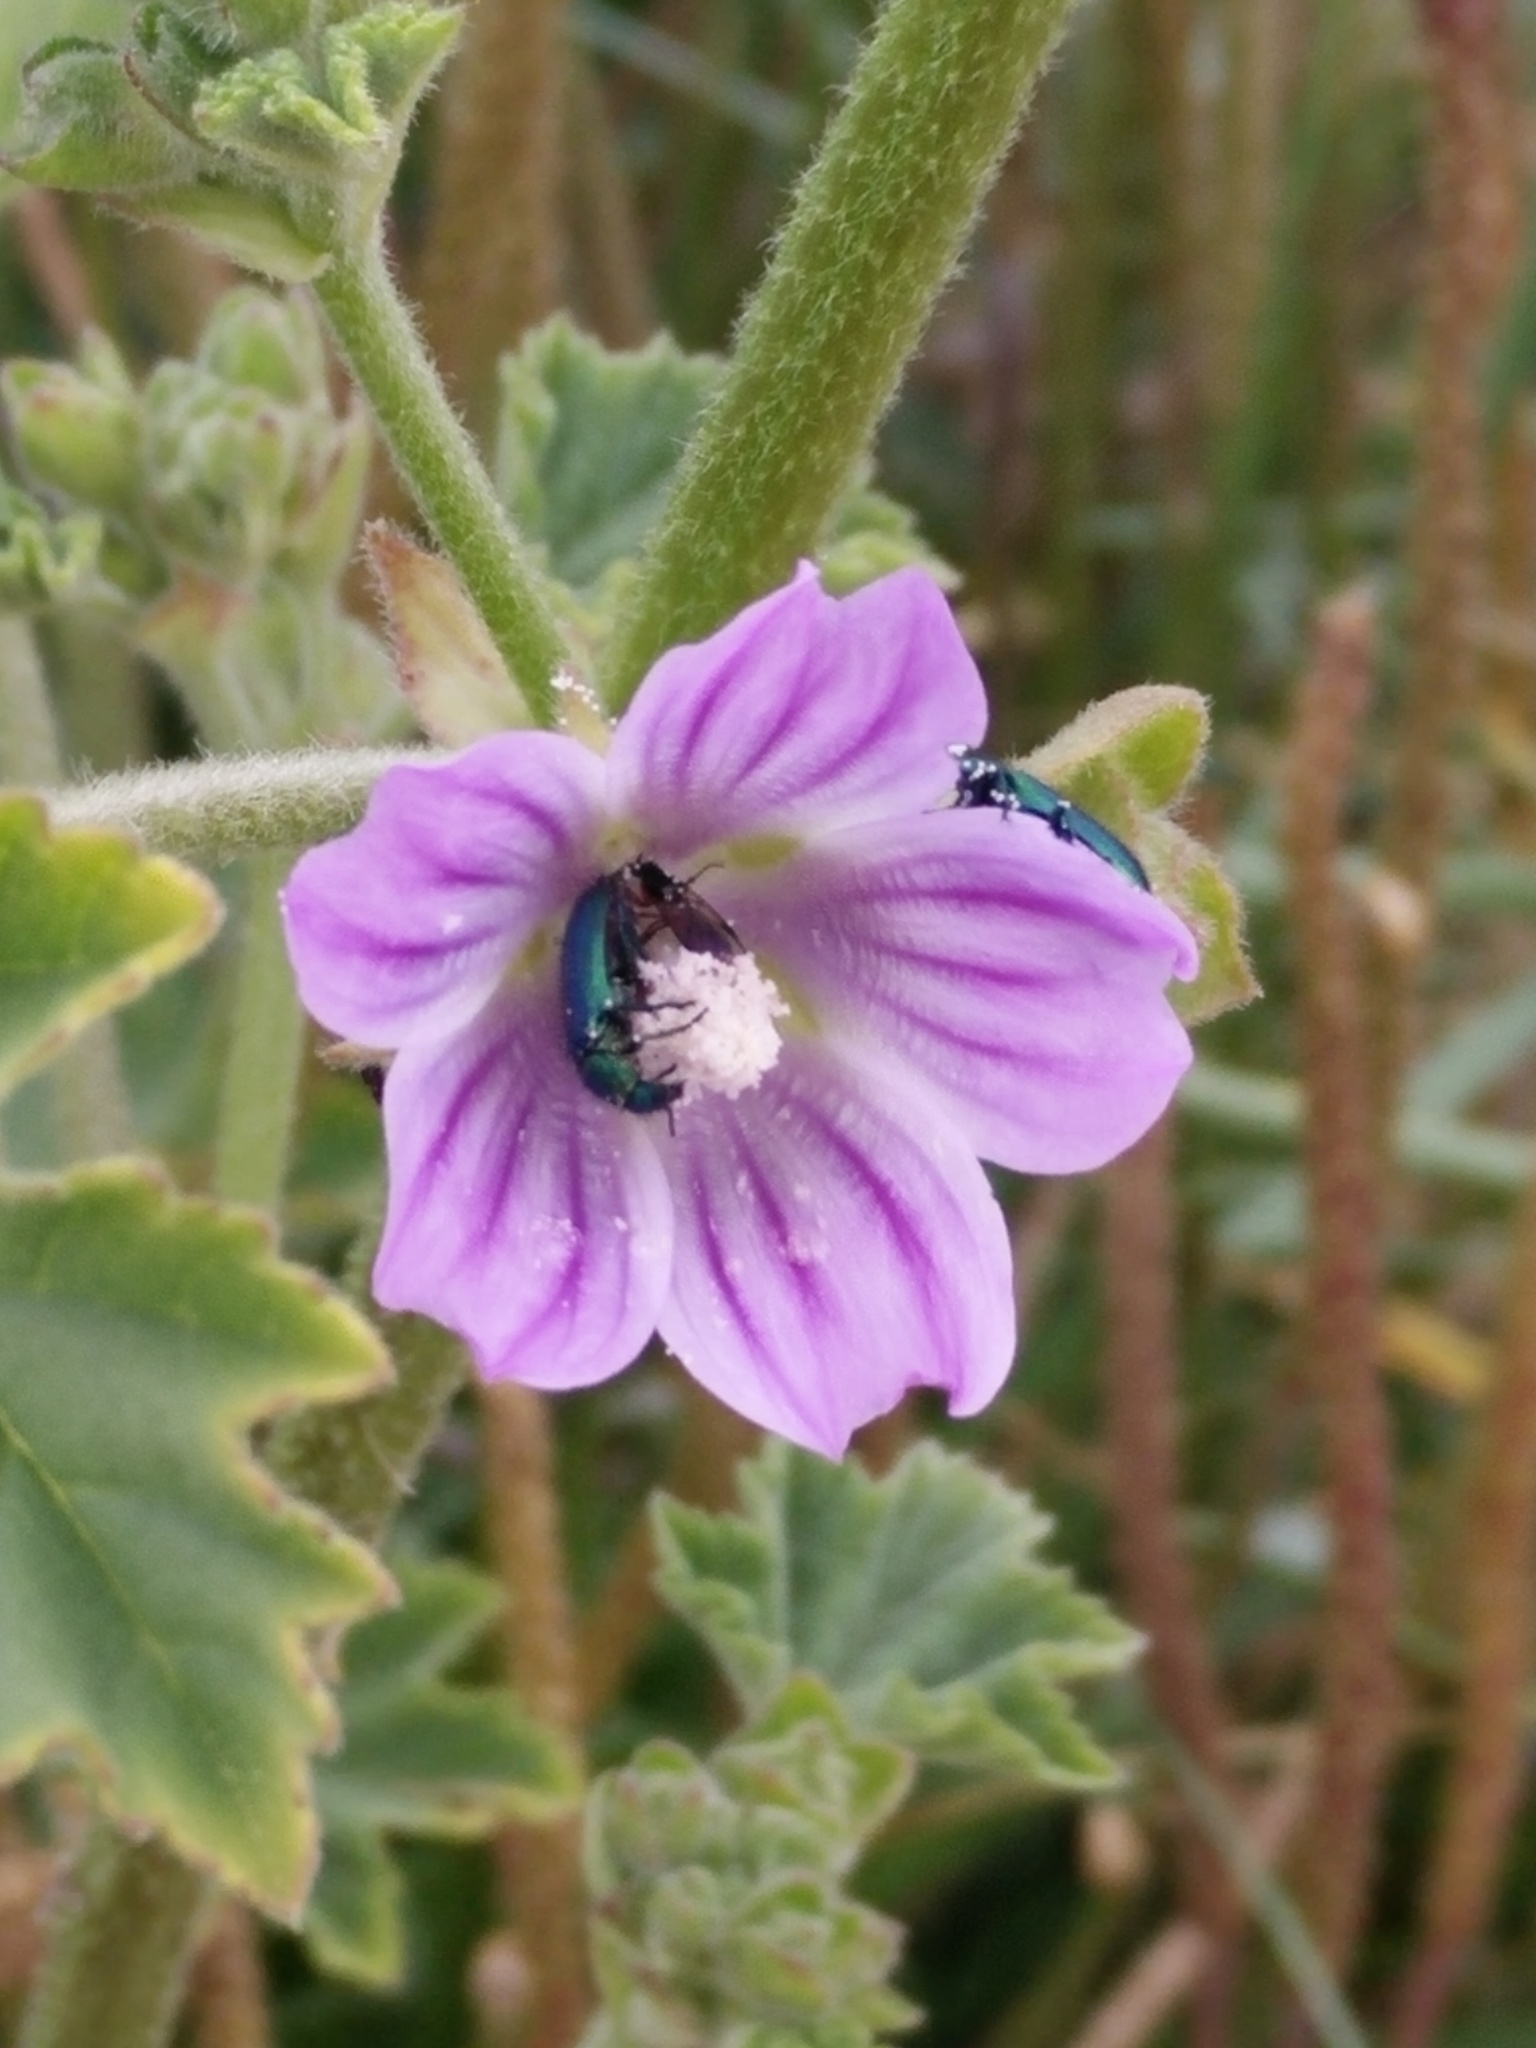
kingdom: Plantae
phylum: Tracheophyta
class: Magnoliopsida
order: Malvales
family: Malvaceae
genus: Malva
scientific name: Malva multiflora
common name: Cheeseweed
